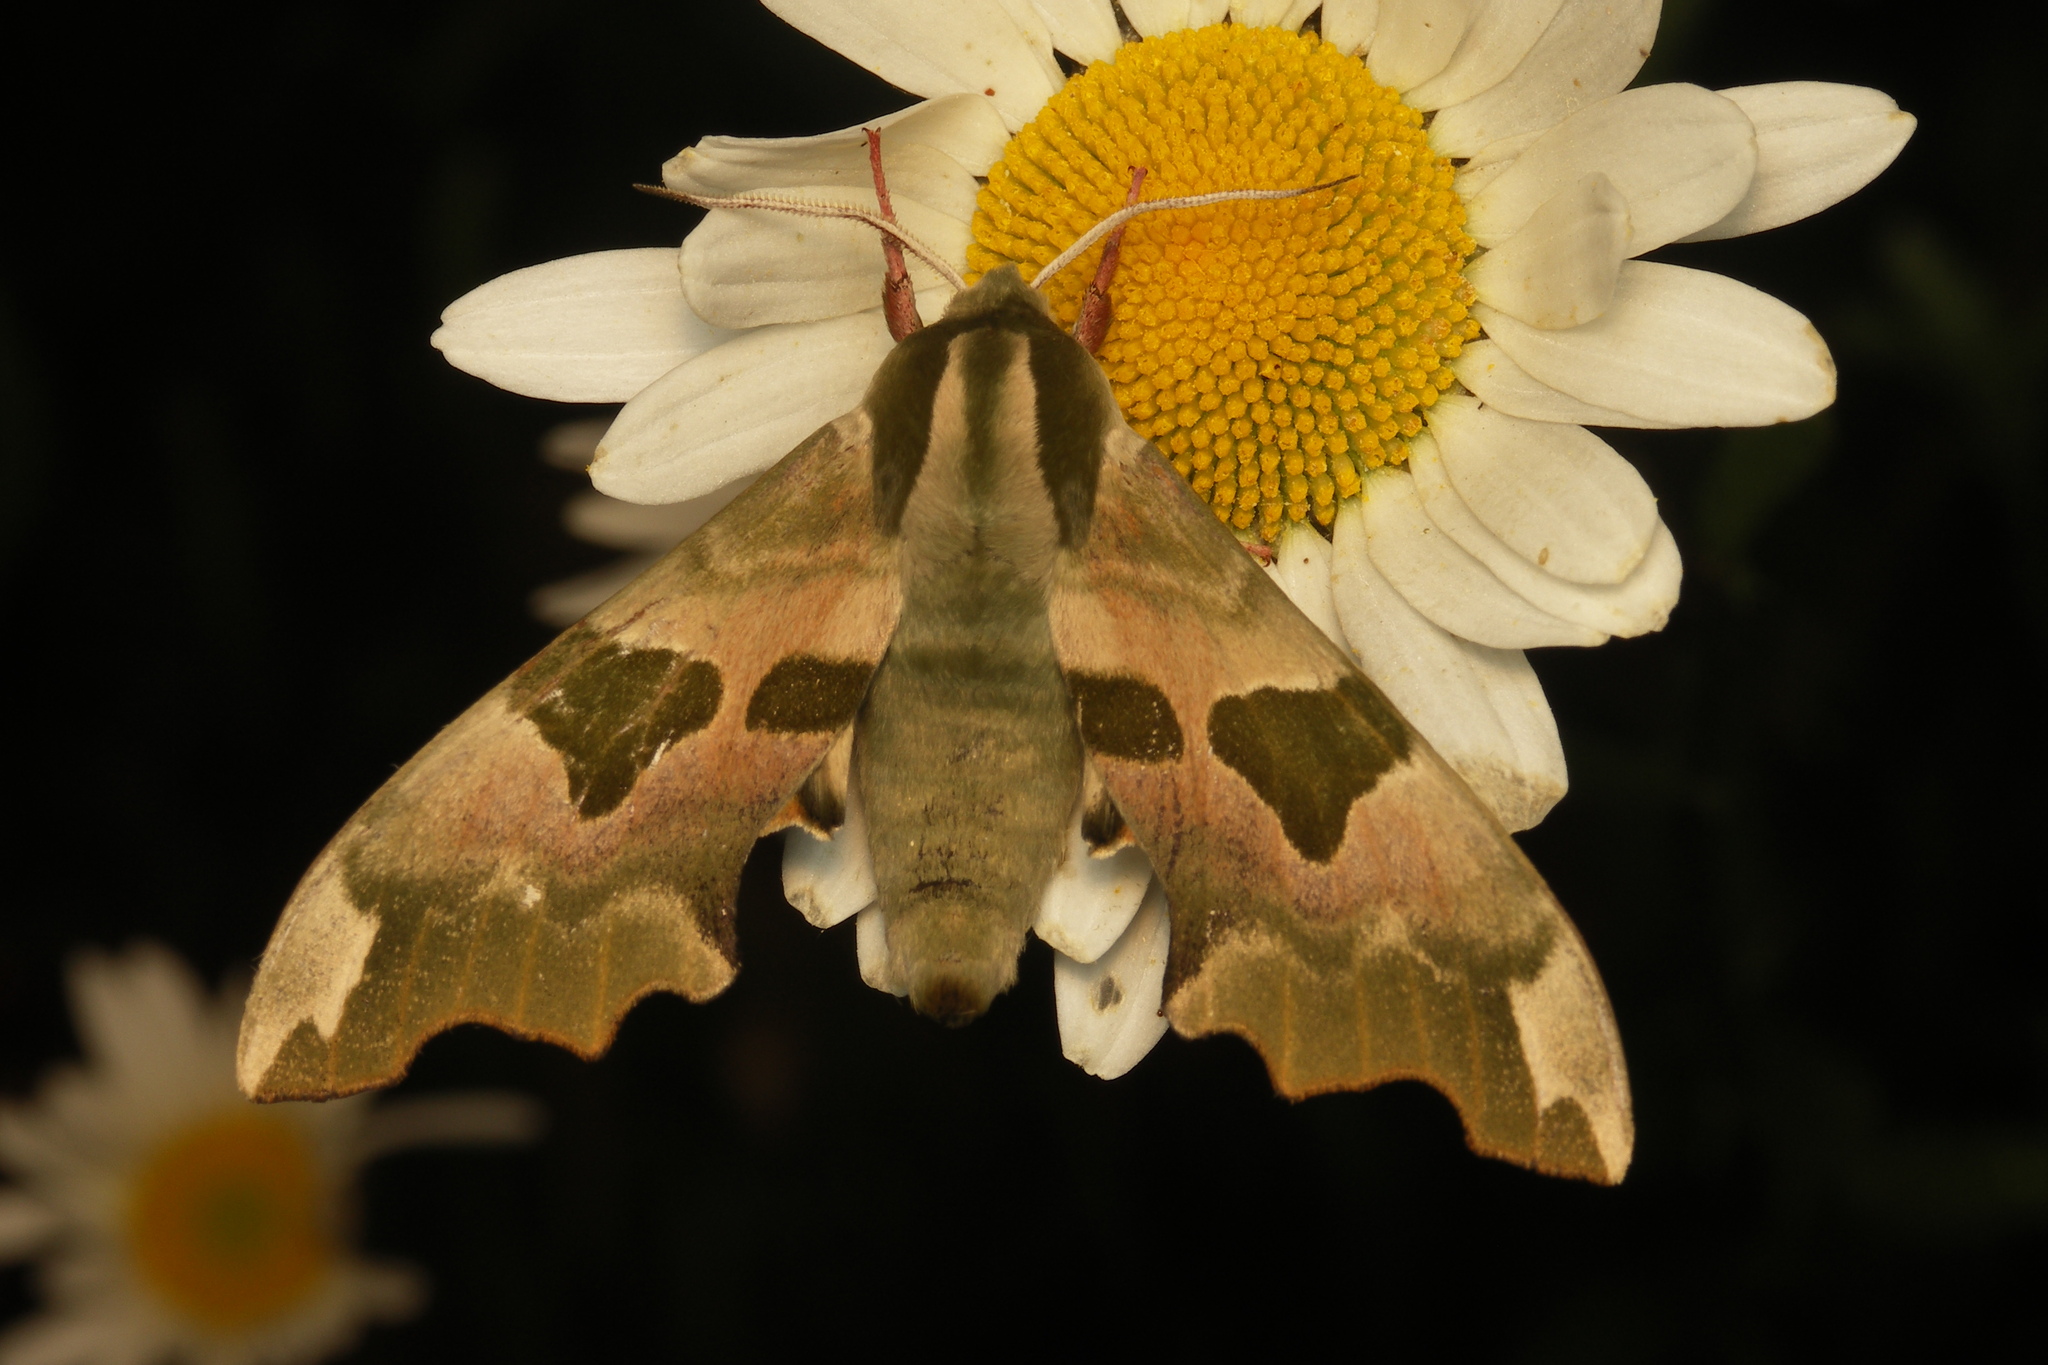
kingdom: Animalia
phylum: Arthropoda
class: Insecta
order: Lepidoptera
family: Sphingidae
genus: Mimas
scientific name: Mimas tiliae
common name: Lime hawk-moth
